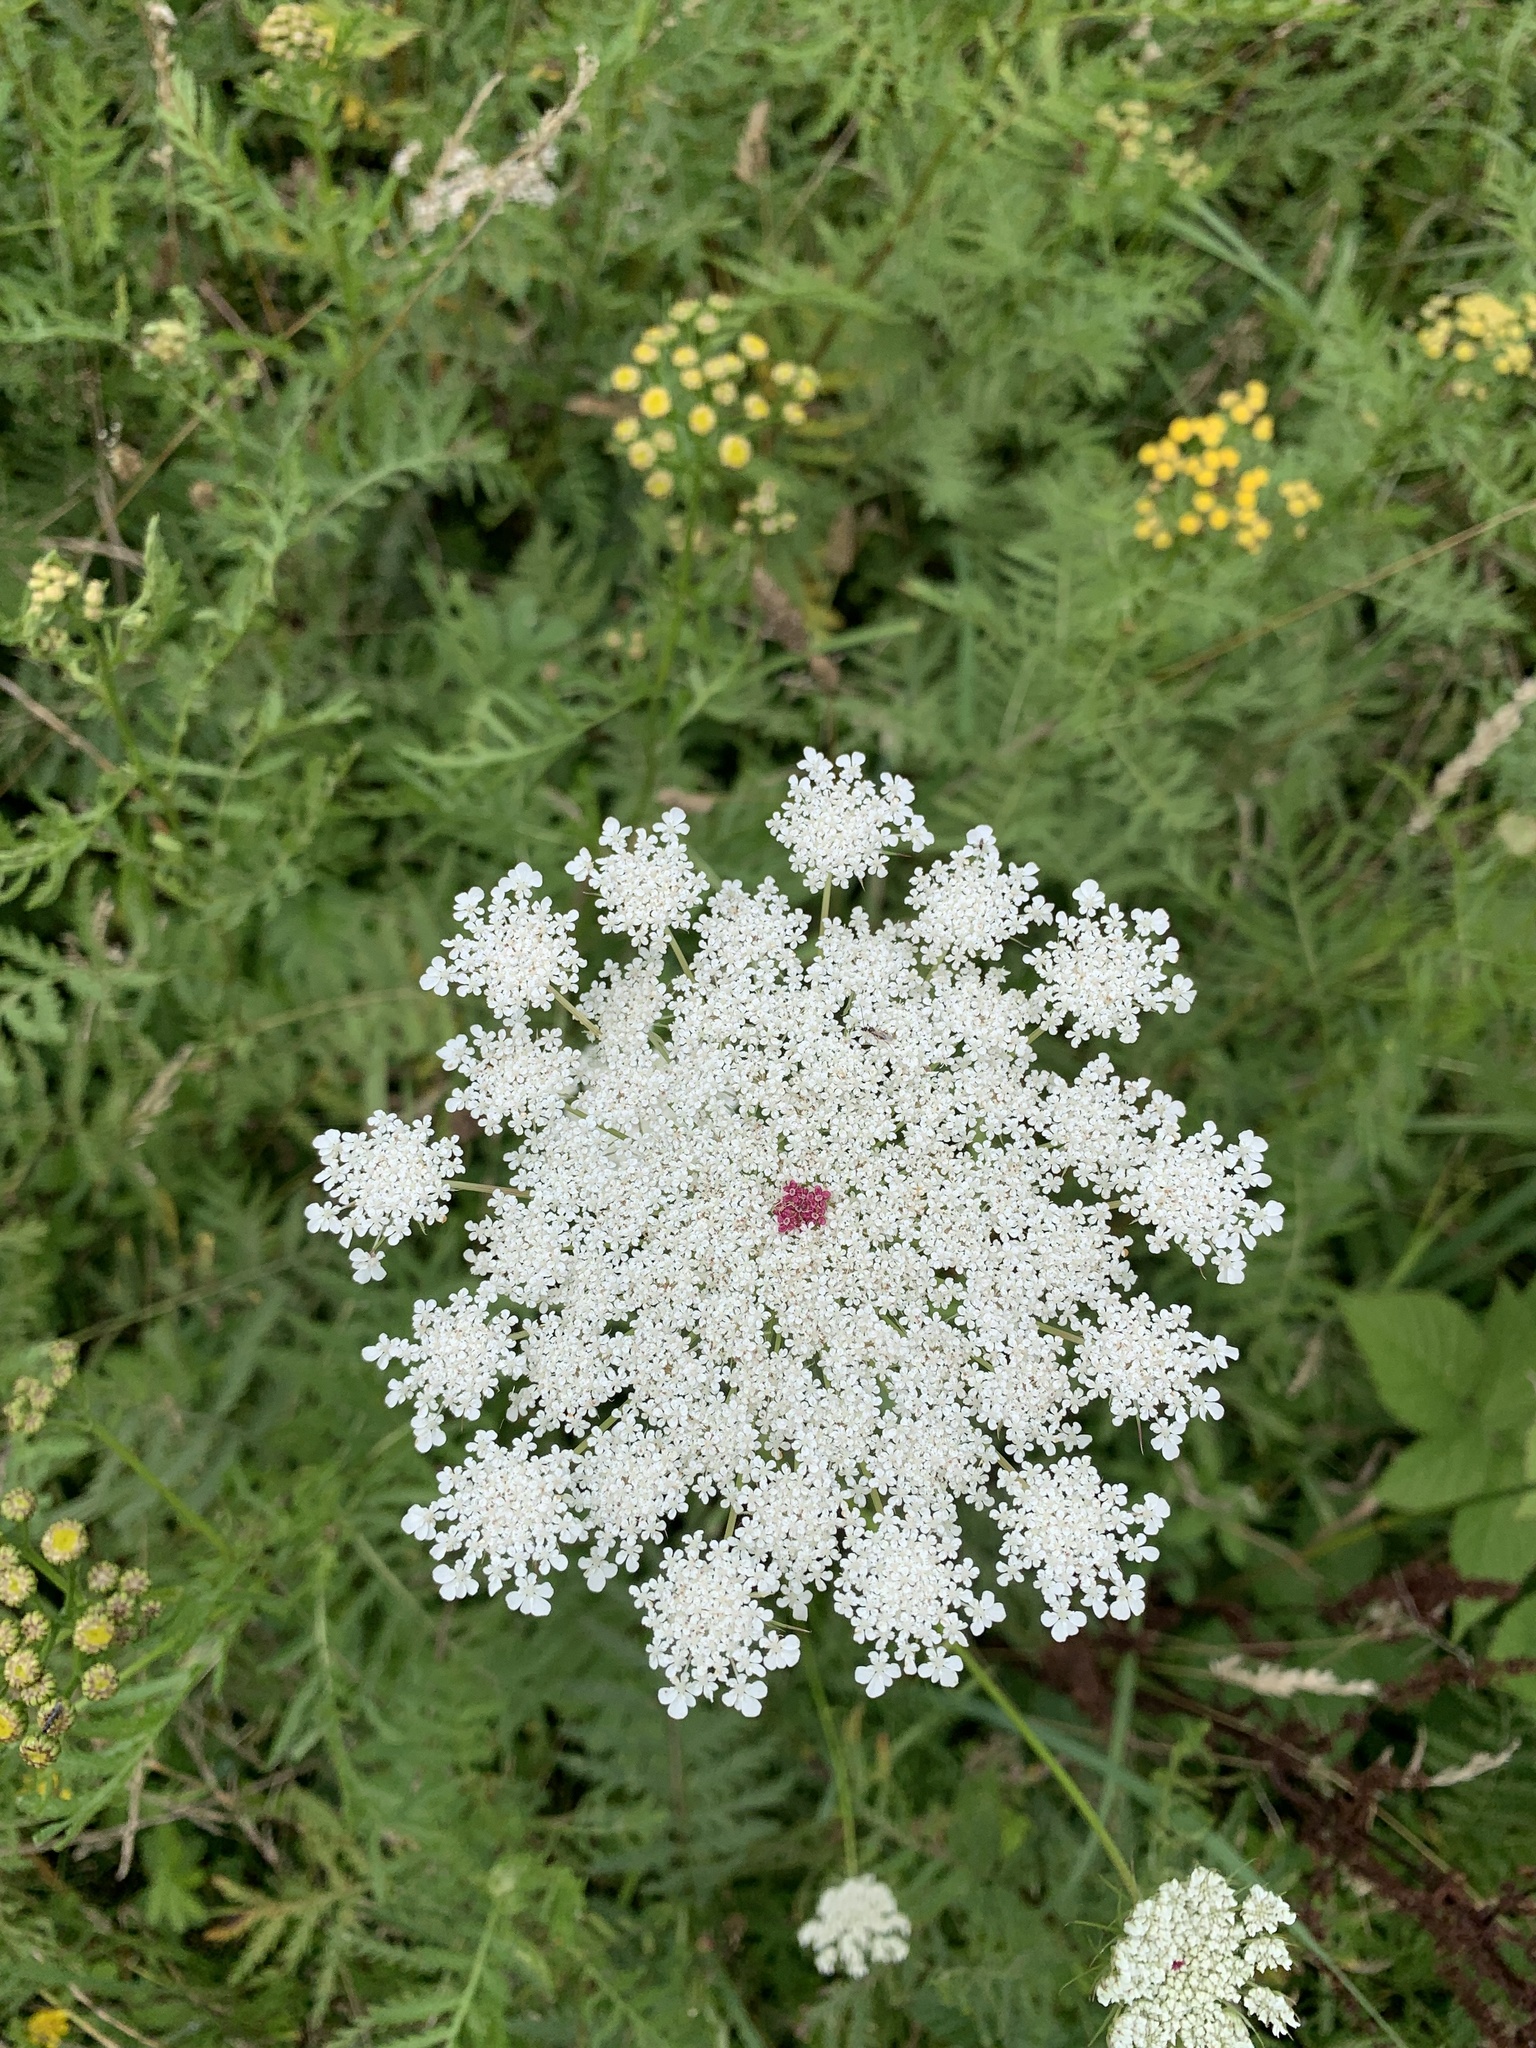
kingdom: Plantae
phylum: Tracheophyta
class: Magnoliopsida
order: Apiales
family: Apiaceae
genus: Daucus
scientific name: Daucus carota
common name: Wild carrot
